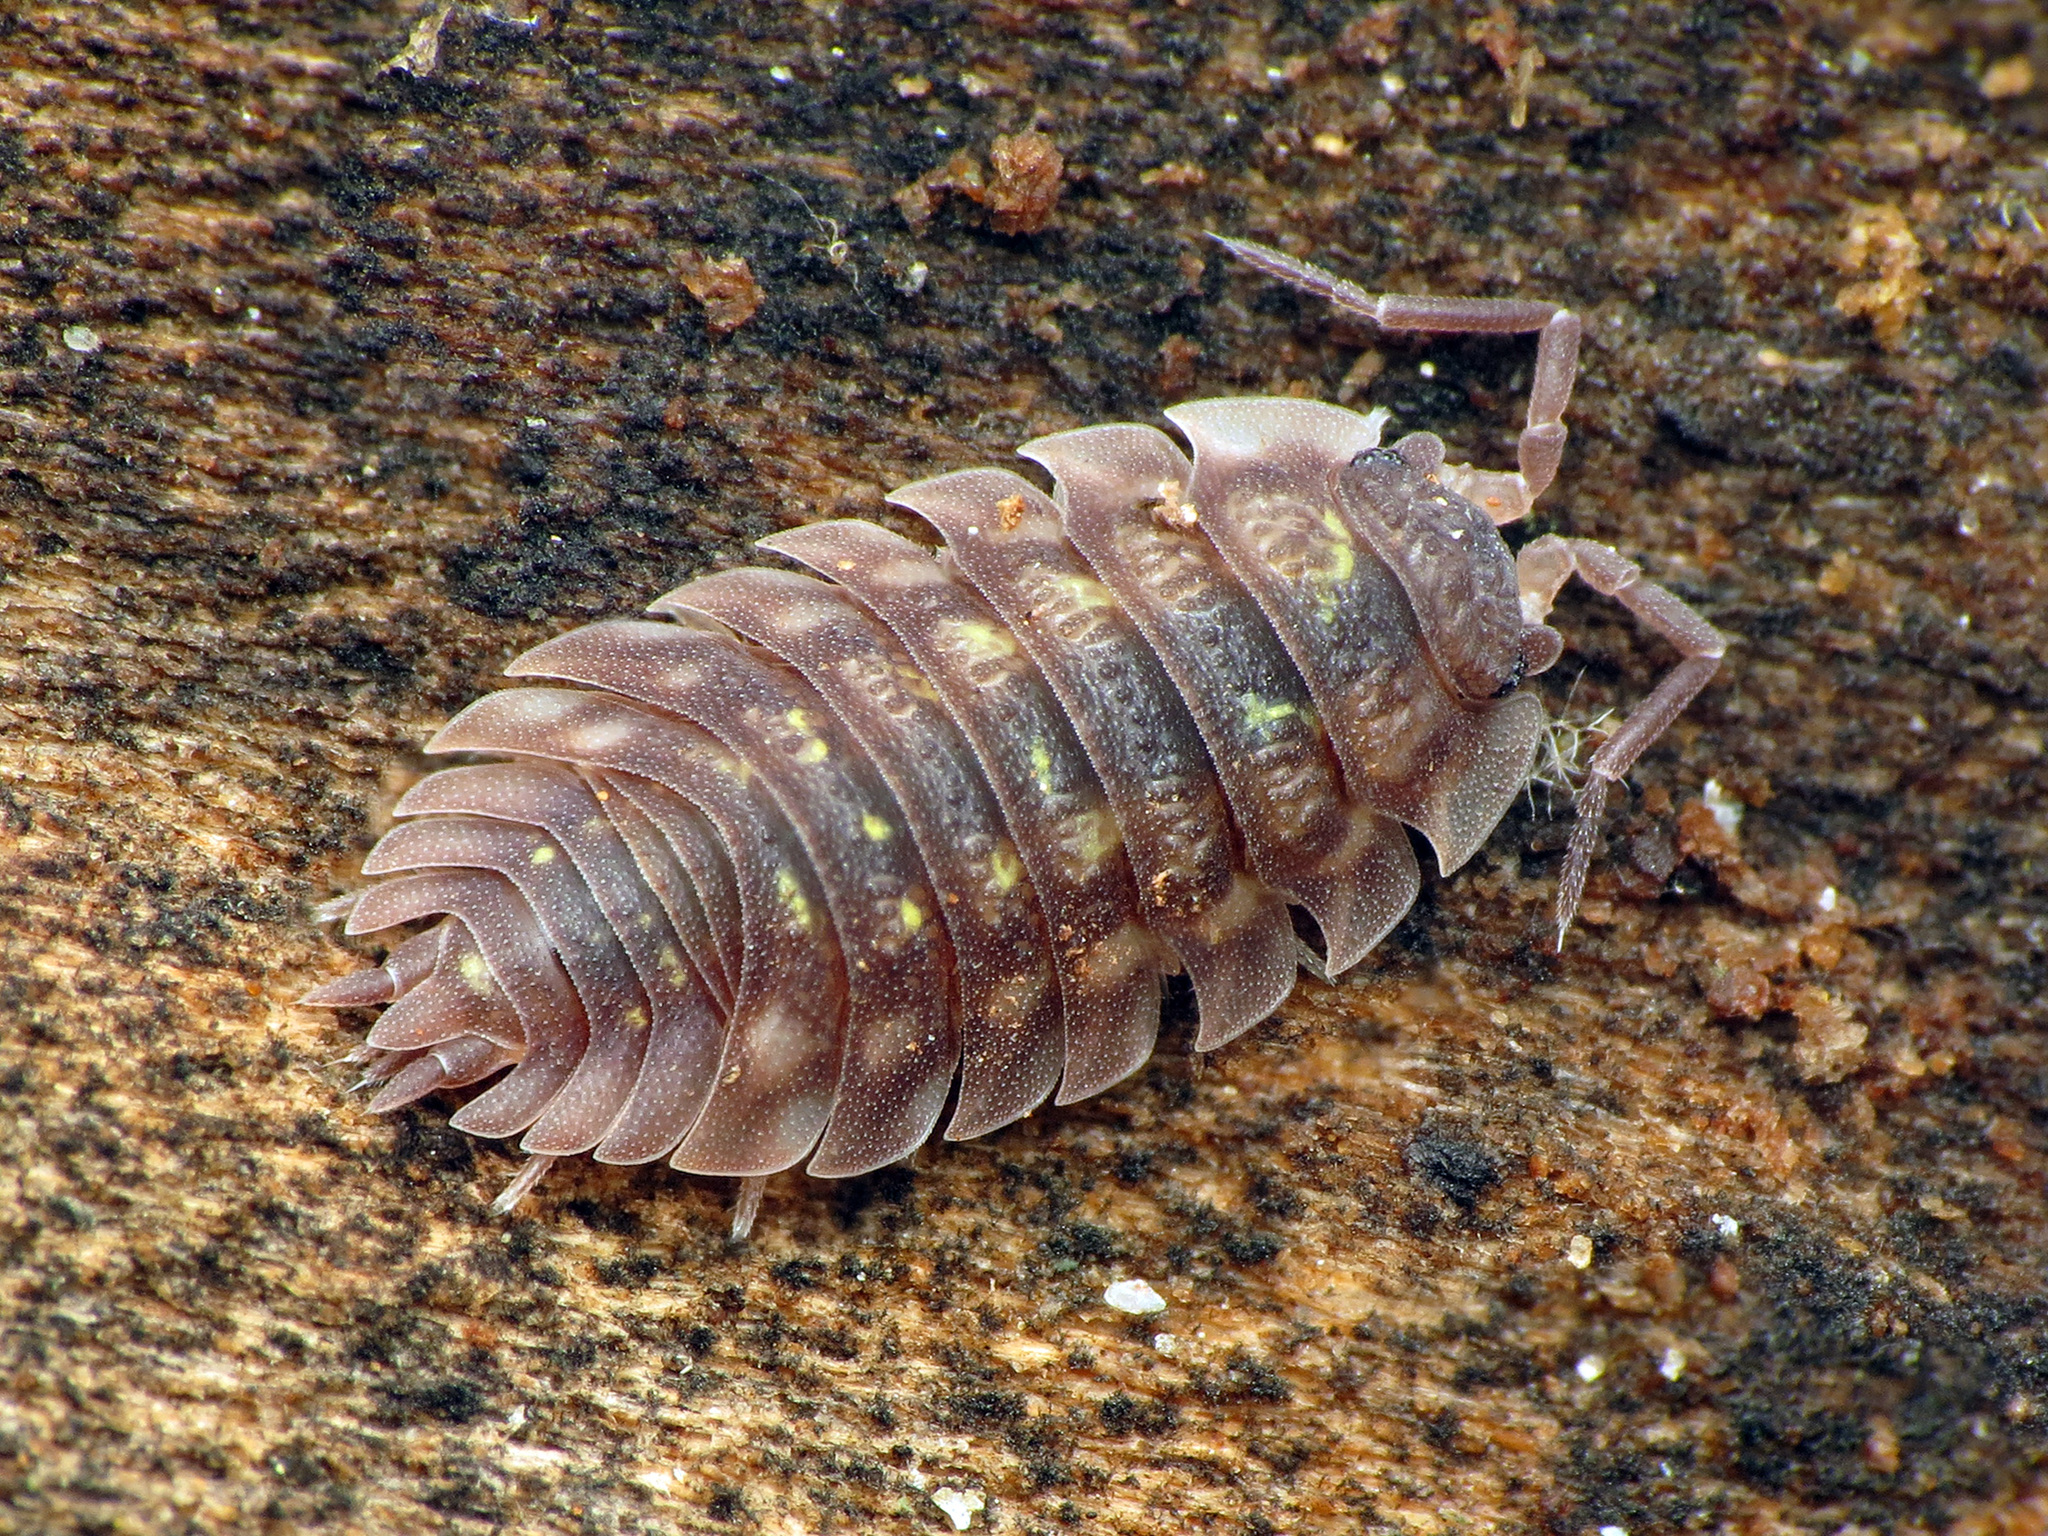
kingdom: Animalia
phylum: Arthropoda
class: Malacostraca
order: Isopoda
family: Oniscidae
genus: Oniscus
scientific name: Oniscus asellus
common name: Common shiny woodlouse
